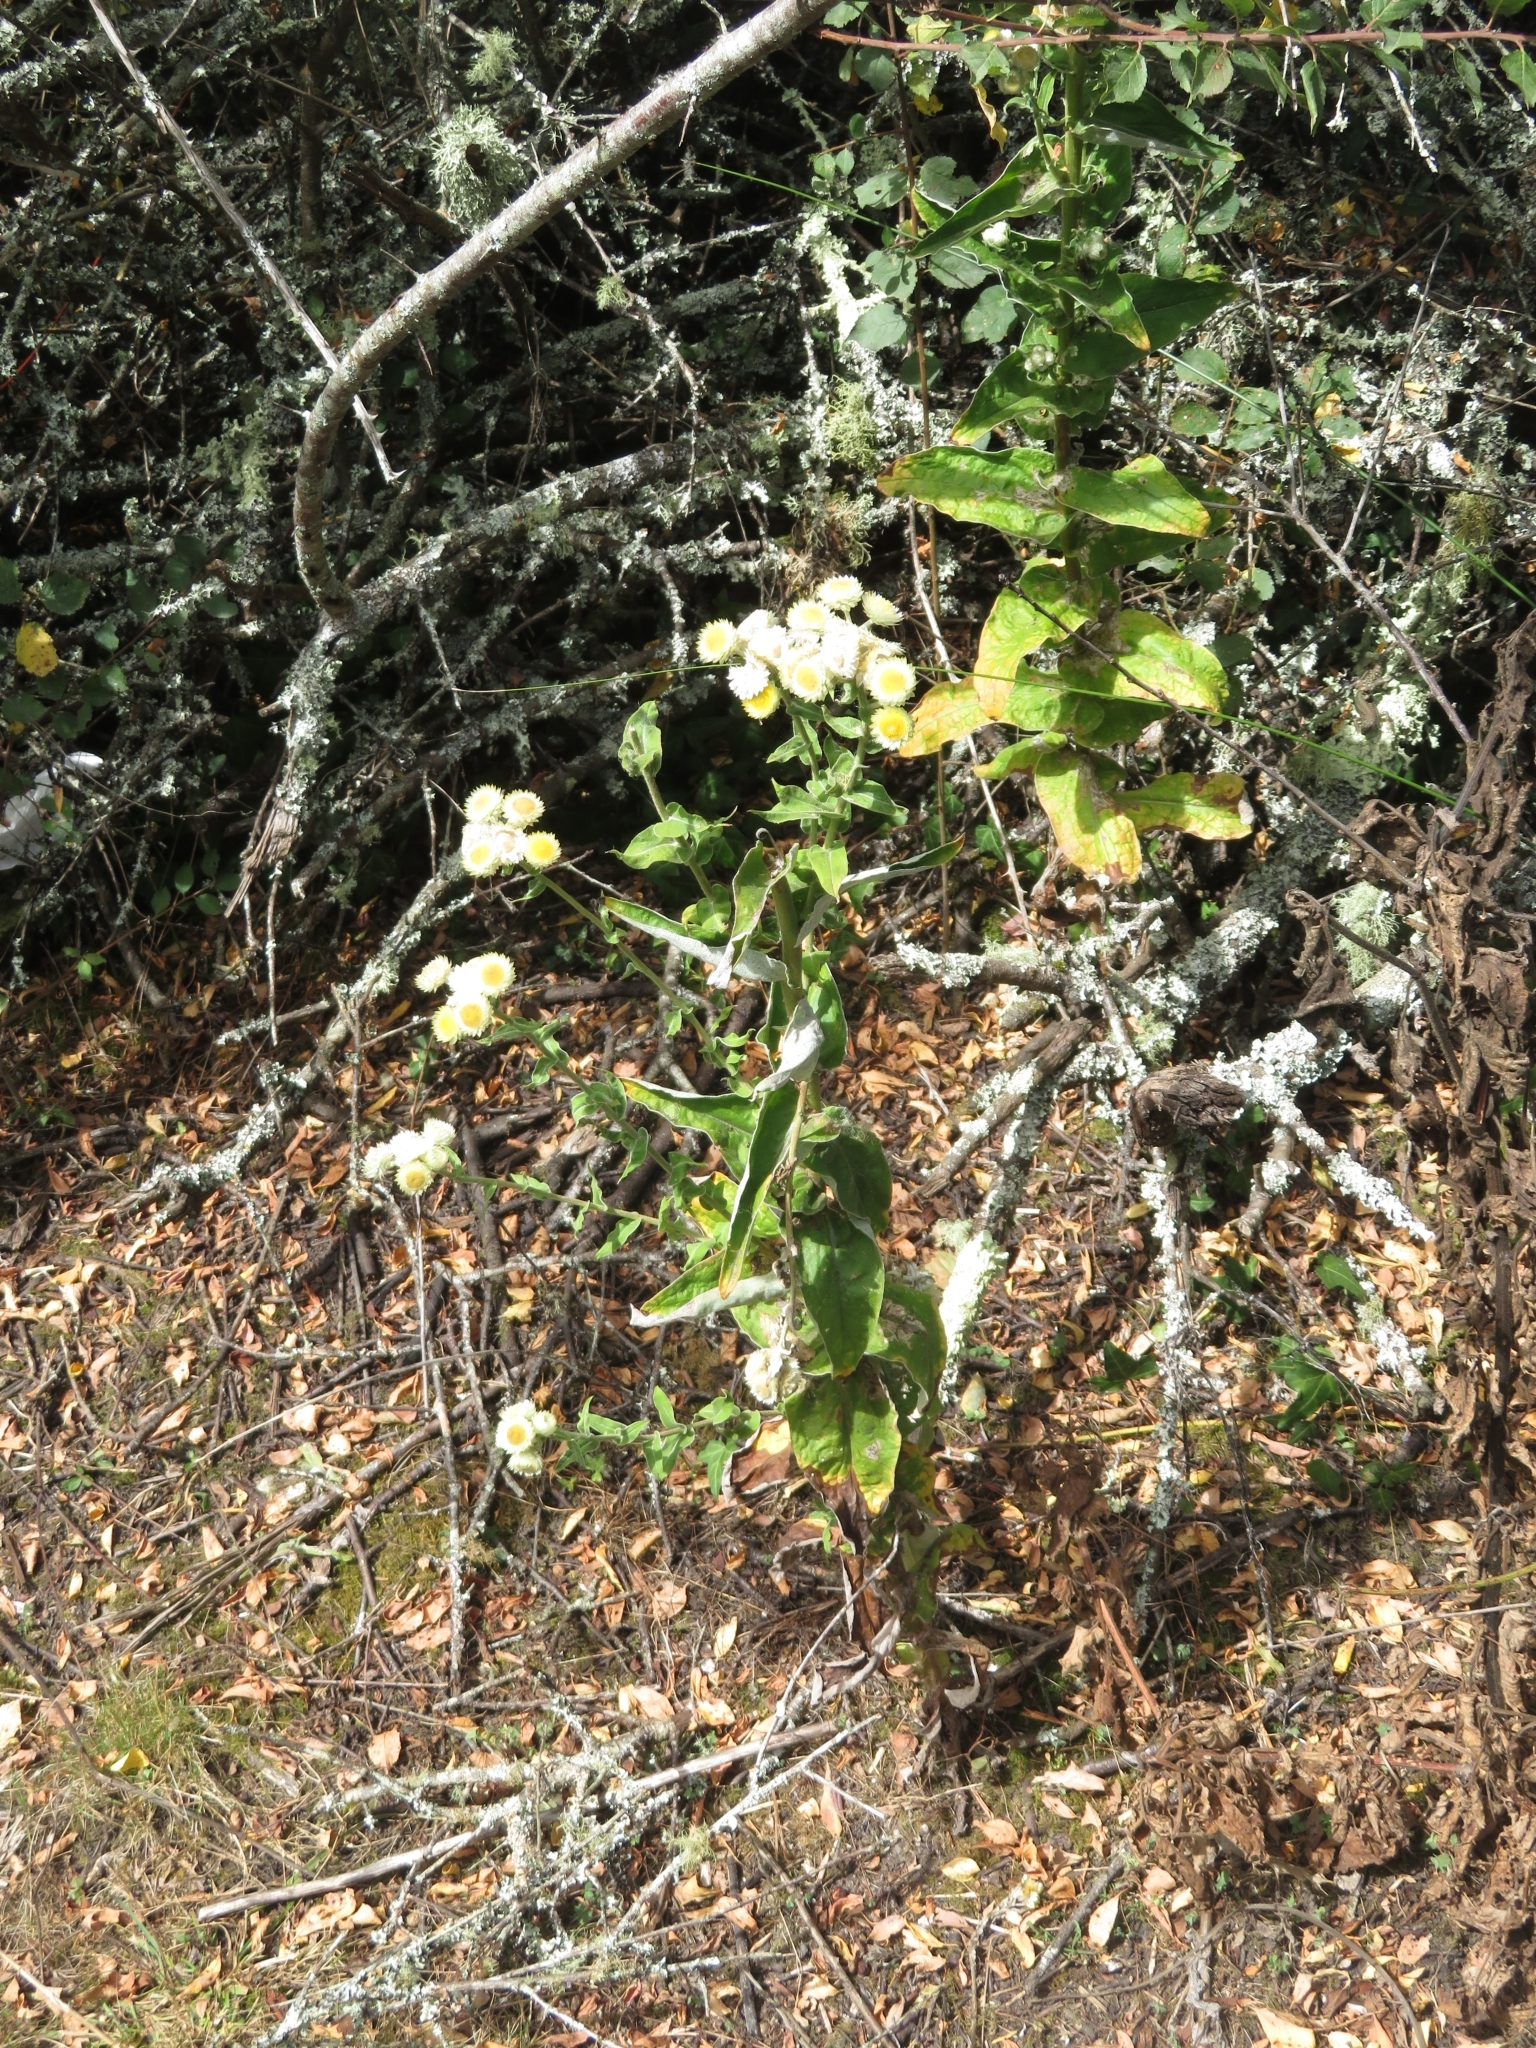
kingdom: Plantae
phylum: Tracheophyta
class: Magnoliopsida
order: Asterales
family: Asteraceae
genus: Helichrysum
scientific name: Helichrysum foetidum
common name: Stinking everlasting
